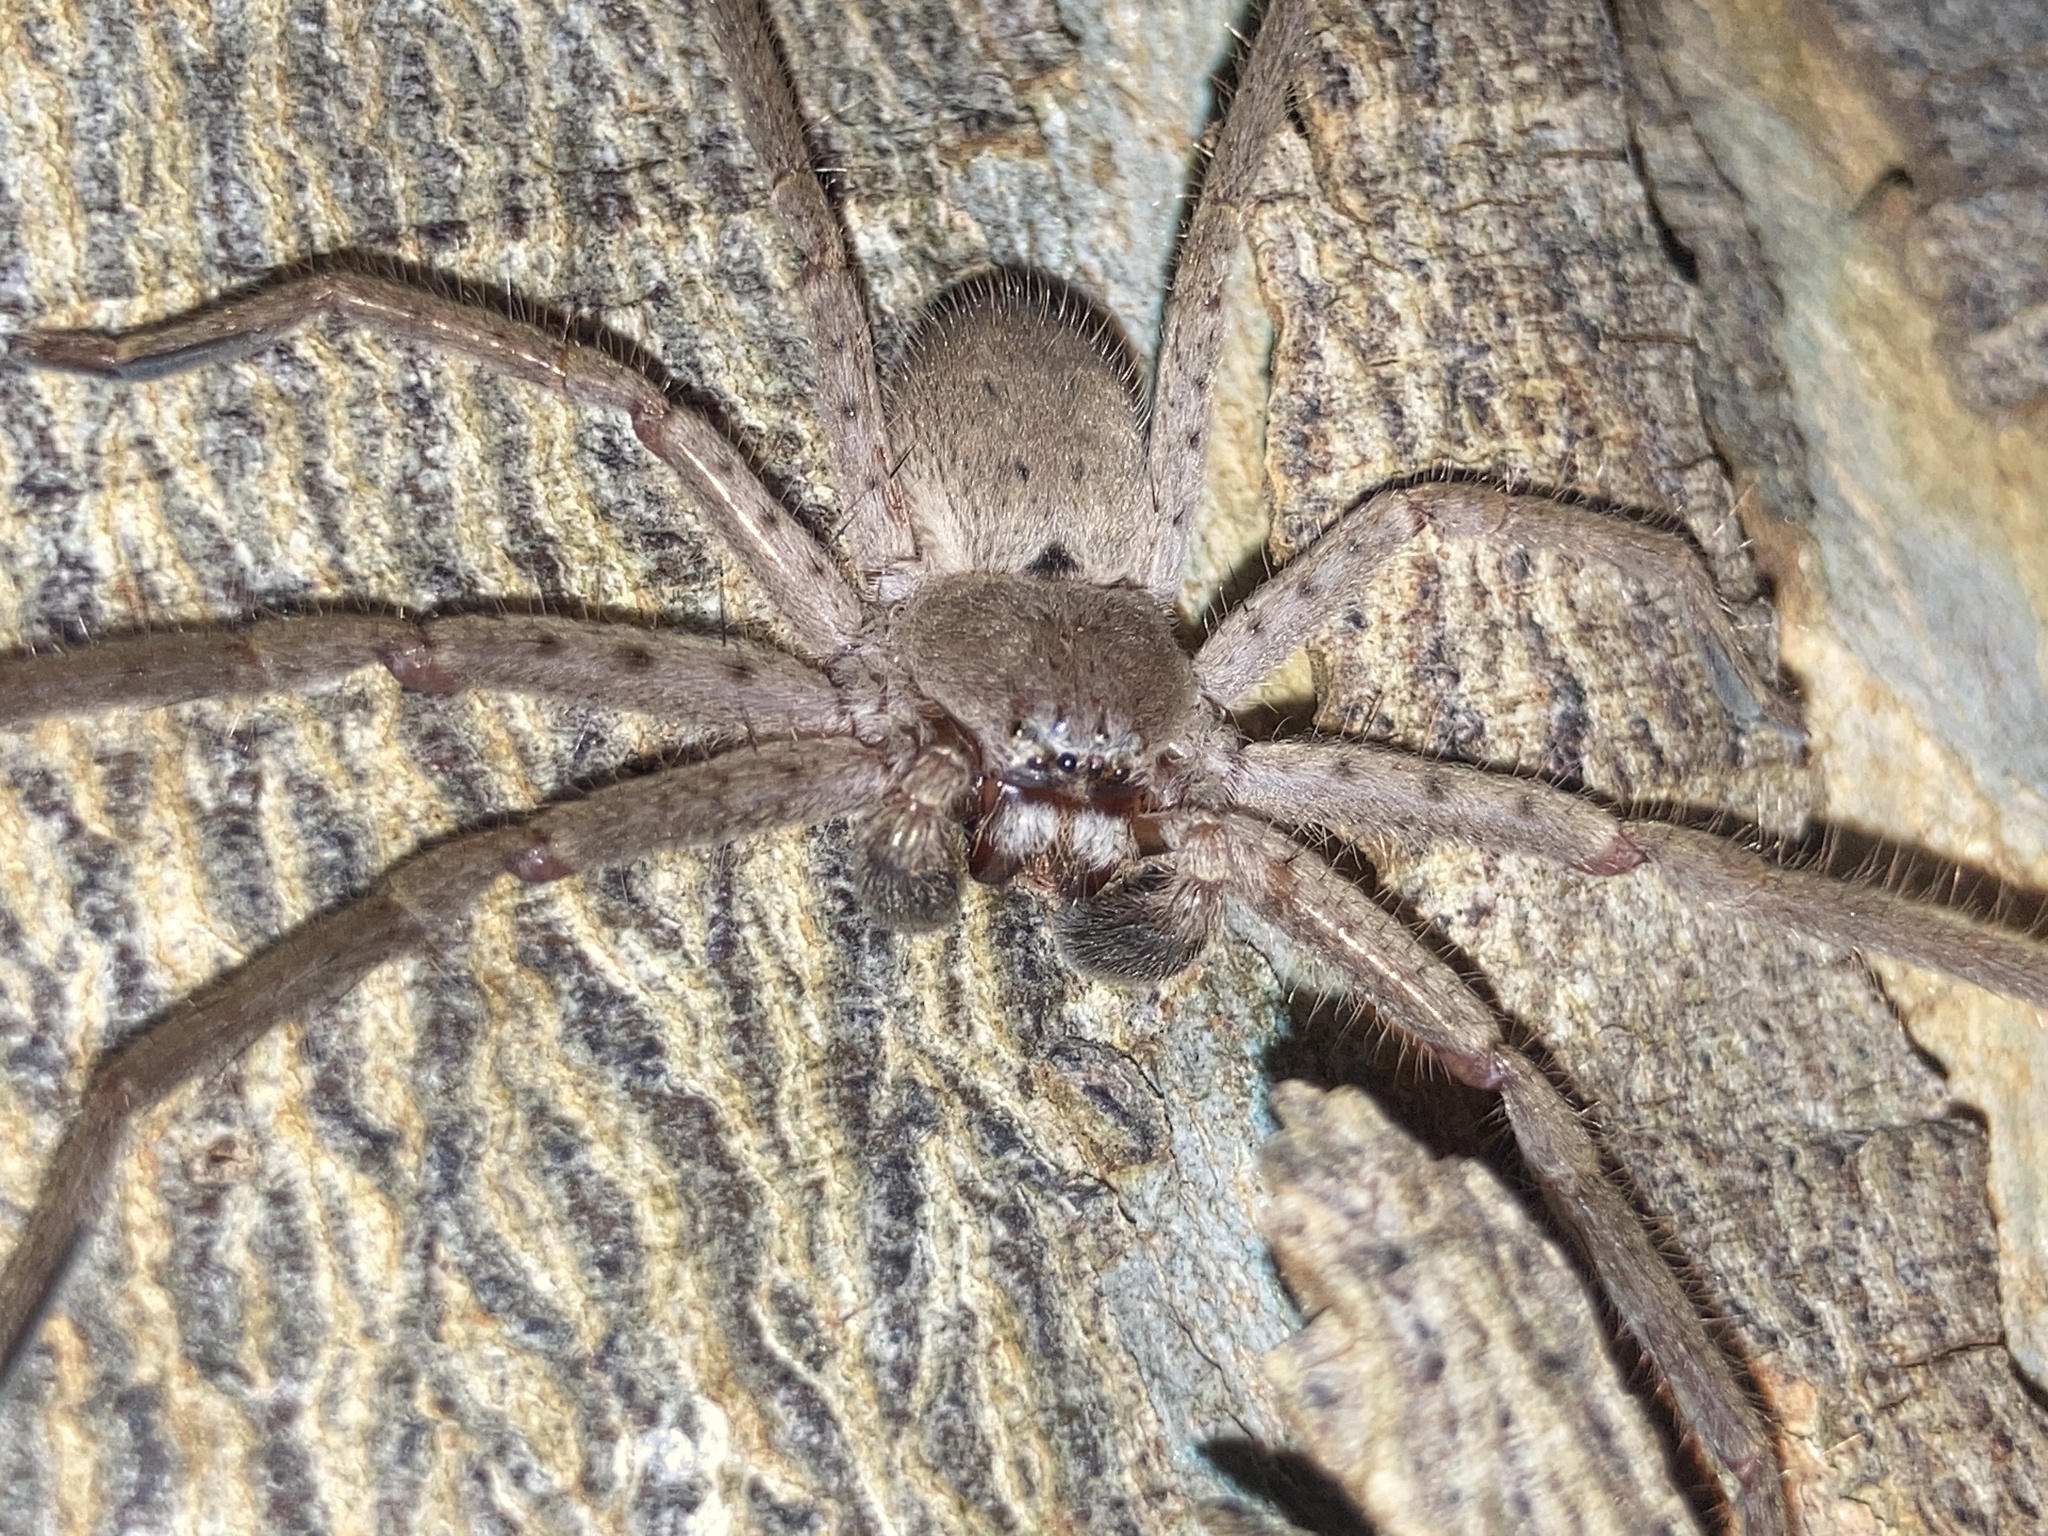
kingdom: Animalia
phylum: Arthropoda
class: Arachnida
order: Araneae
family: Sparassidae
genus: Isopeda
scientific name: Isopeda villosa
